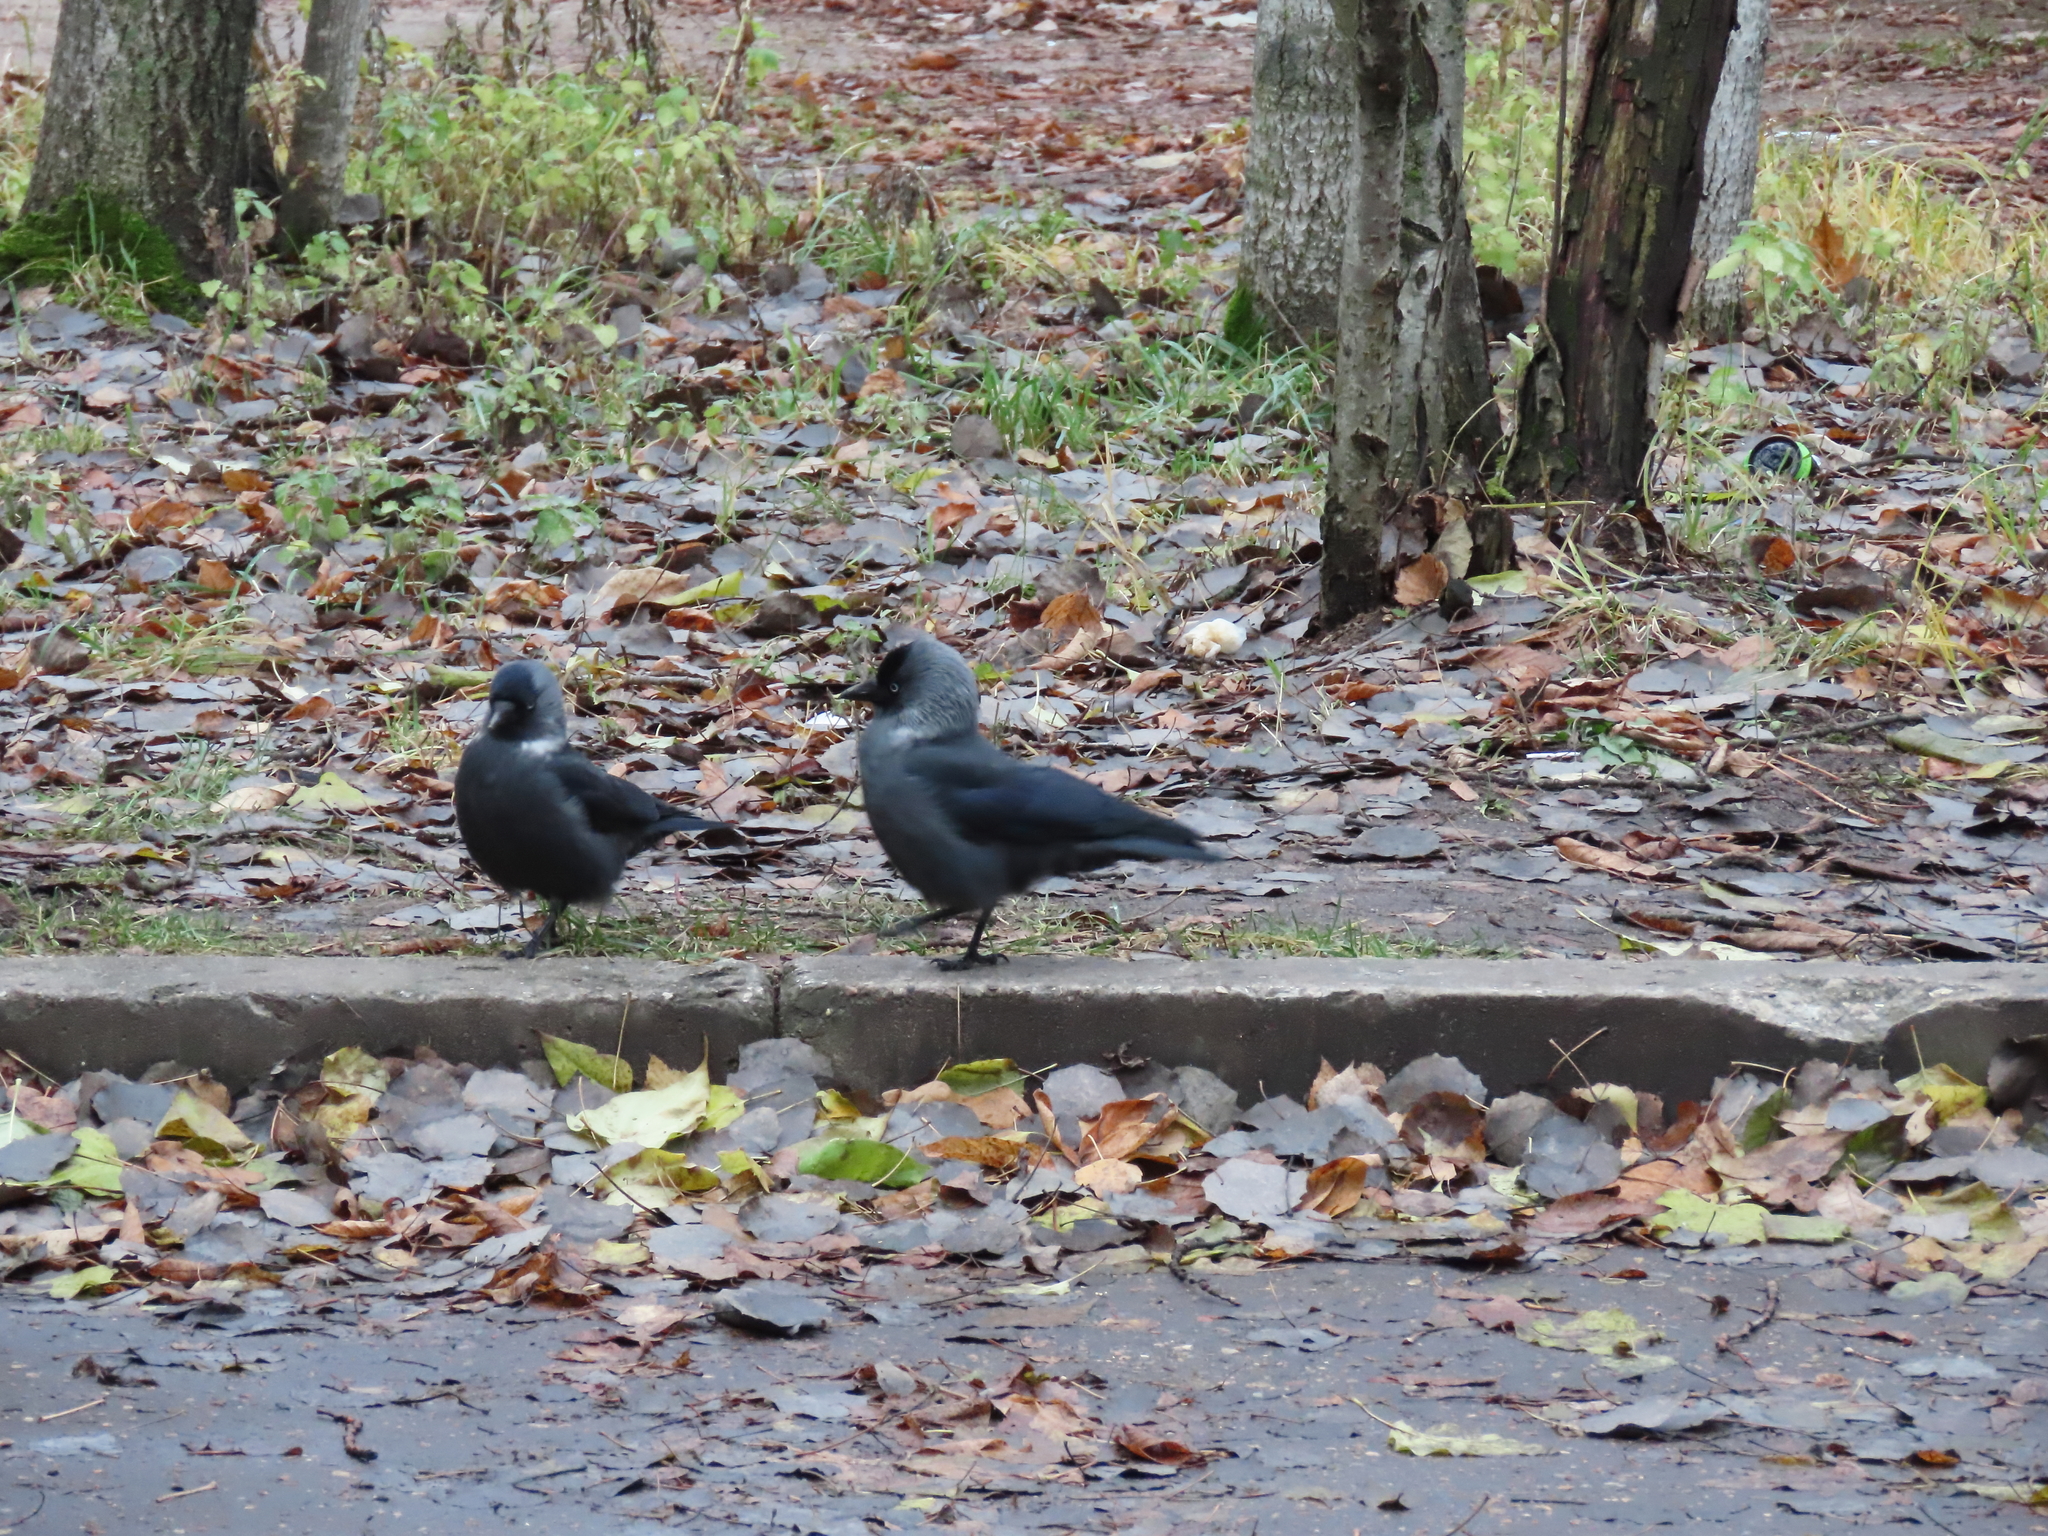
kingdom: Animalia
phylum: Chordata
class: Aves
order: Passeriformes
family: Corvidae
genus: Coloeus
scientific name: Coloeus monedula
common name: Western jackdaw
